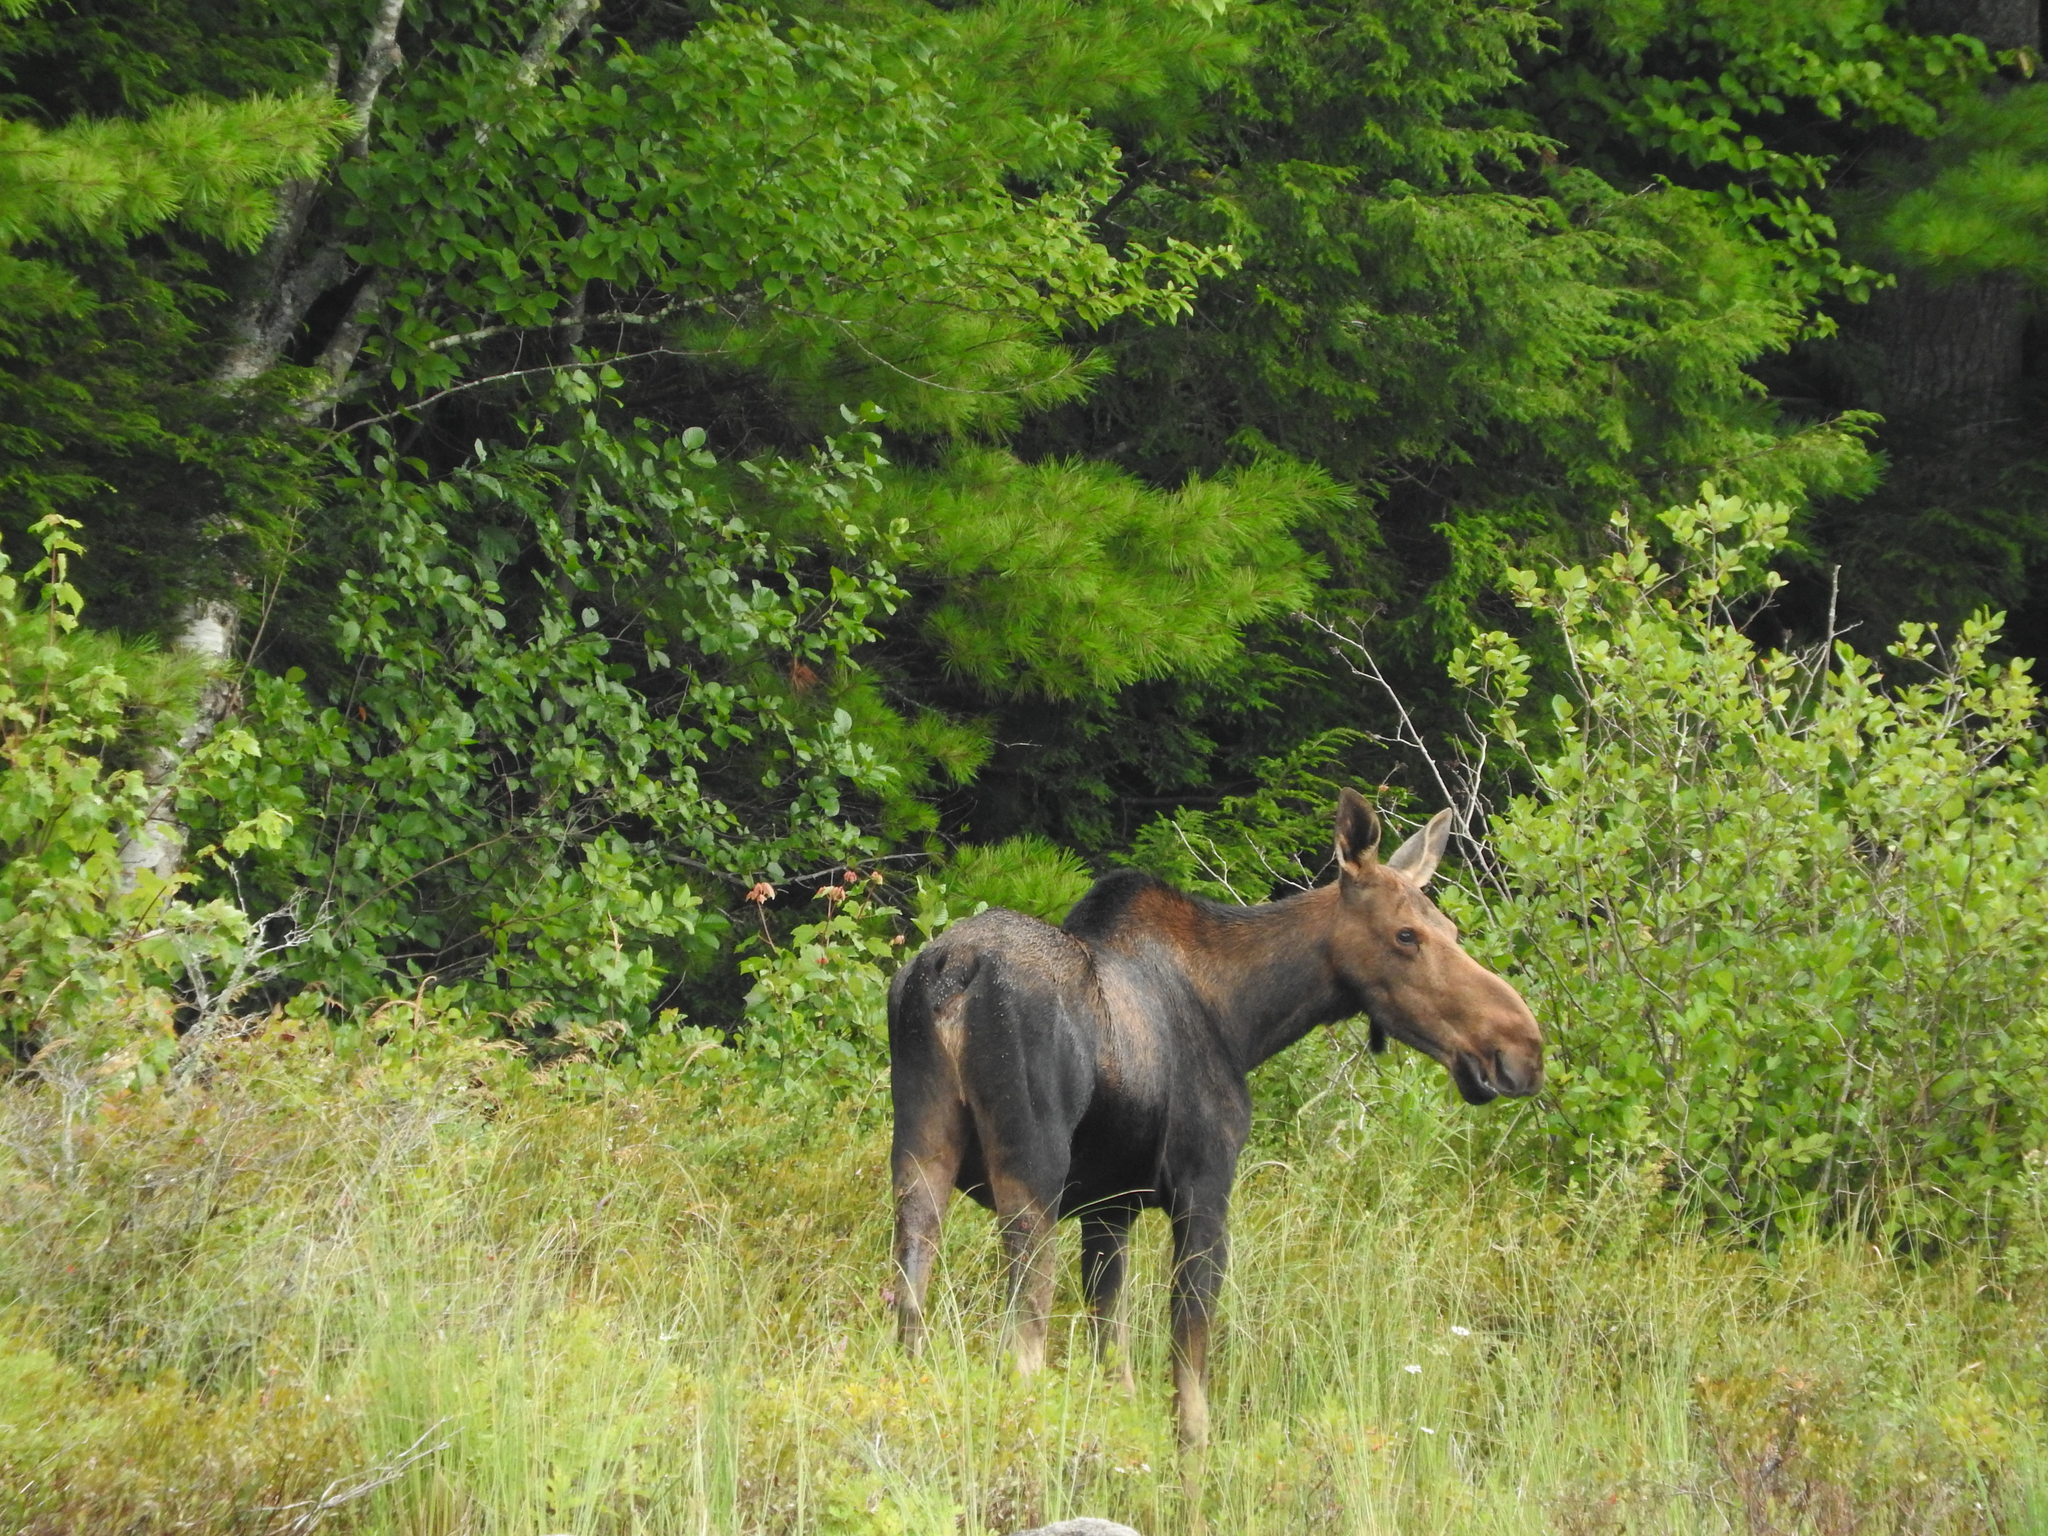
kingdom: Animalia
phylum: Chordata
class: Mammalia
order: Artiodactyla
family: Cervidae
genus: Alces
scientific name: Alces alces
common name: Moose
